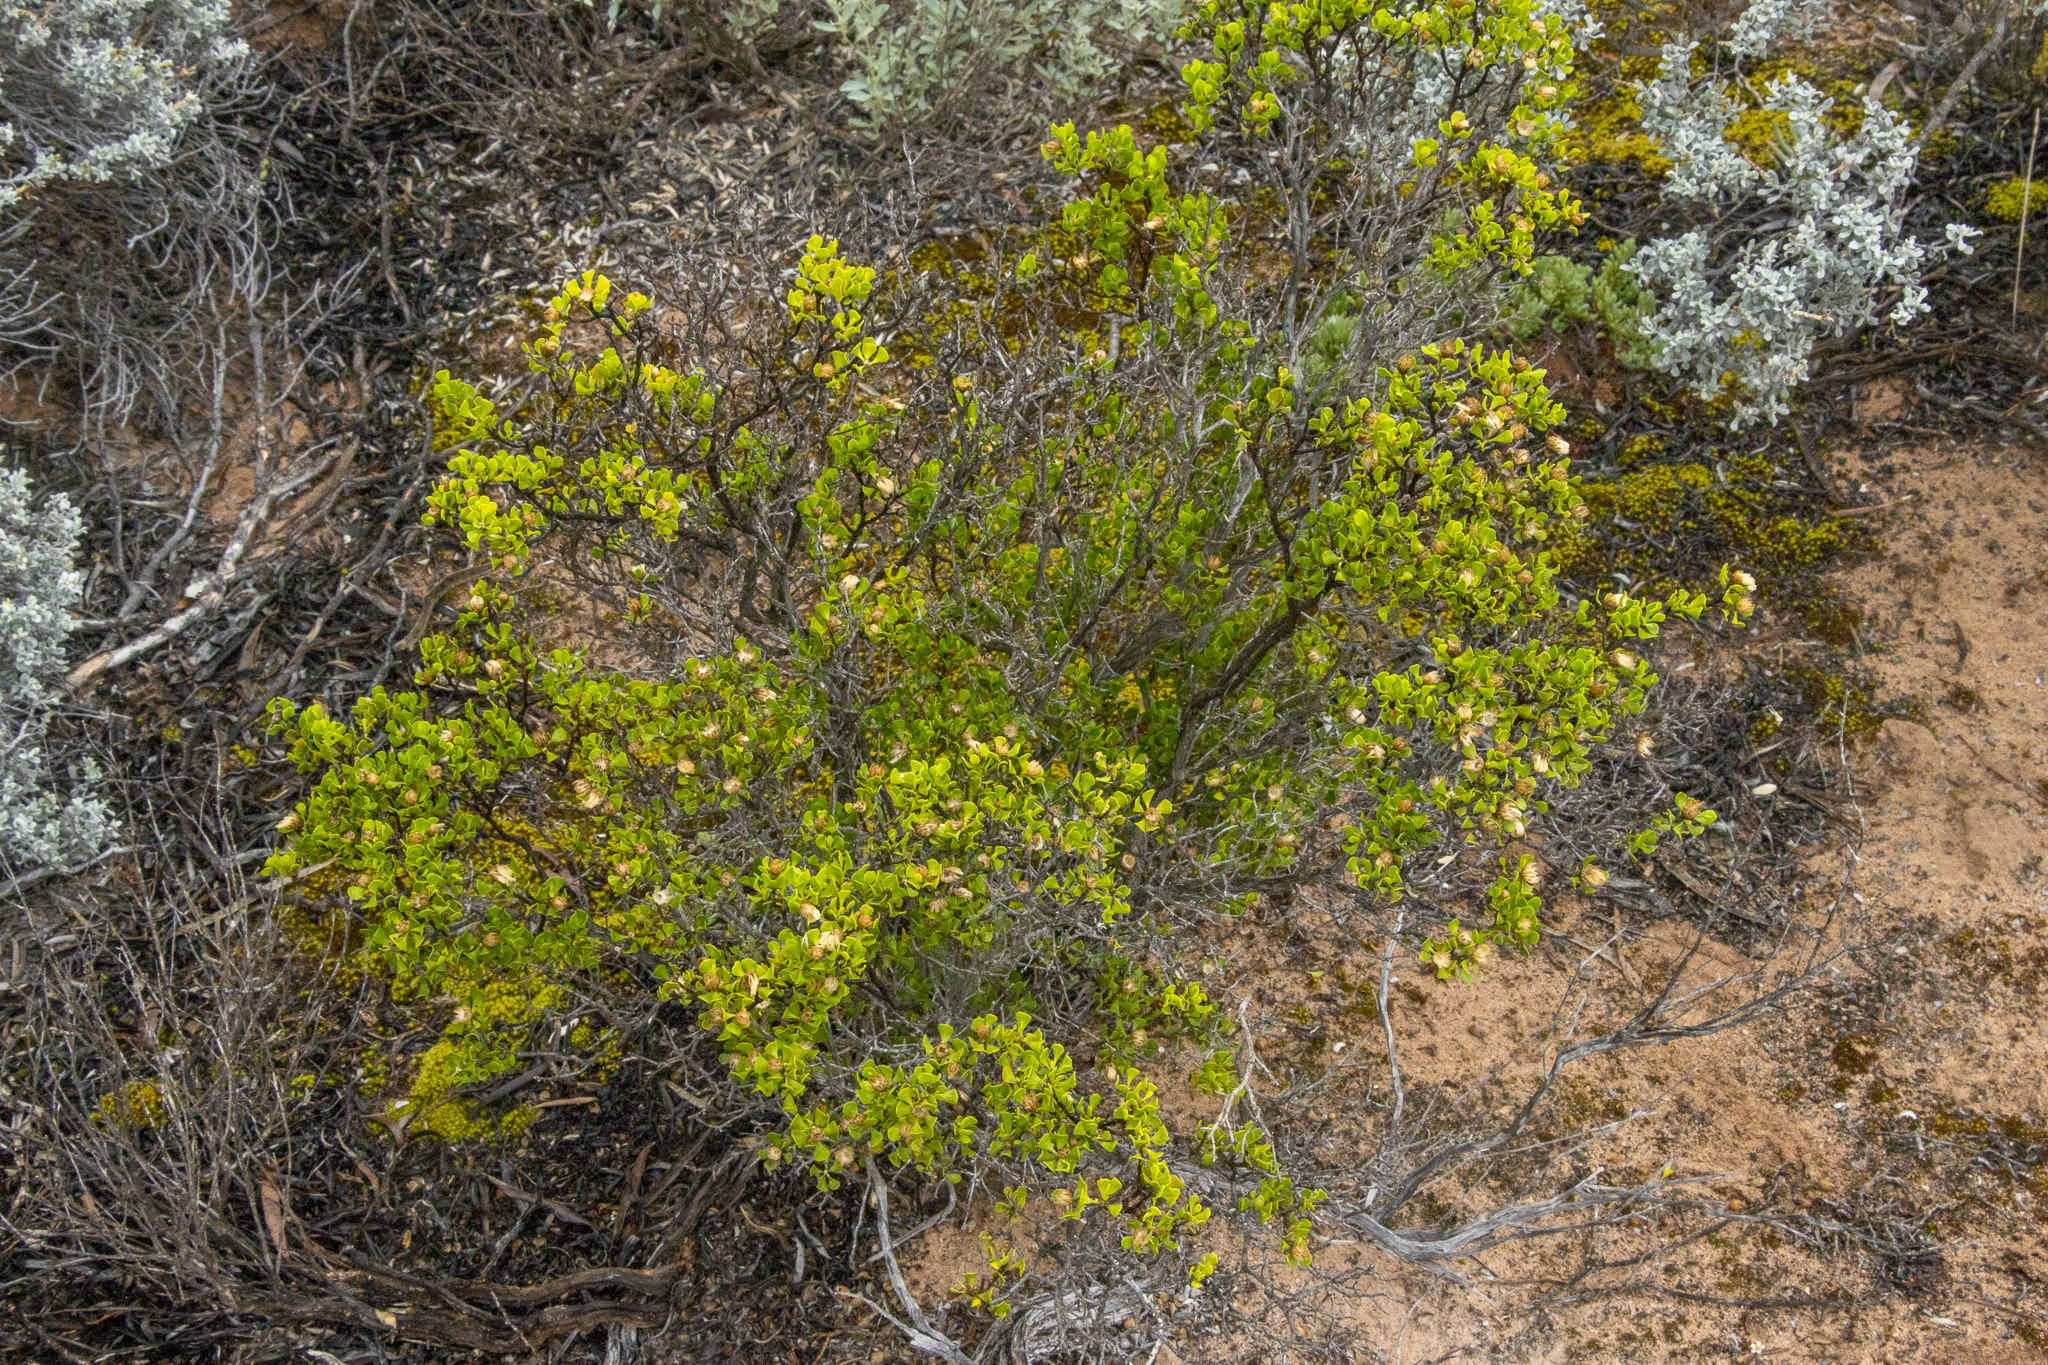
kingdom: Plantae
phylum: Tracheophyta
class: Magnoliopsida
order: Asterales
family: Asteraceae
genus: Walsholaria
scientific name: Walsholaria muelleri
